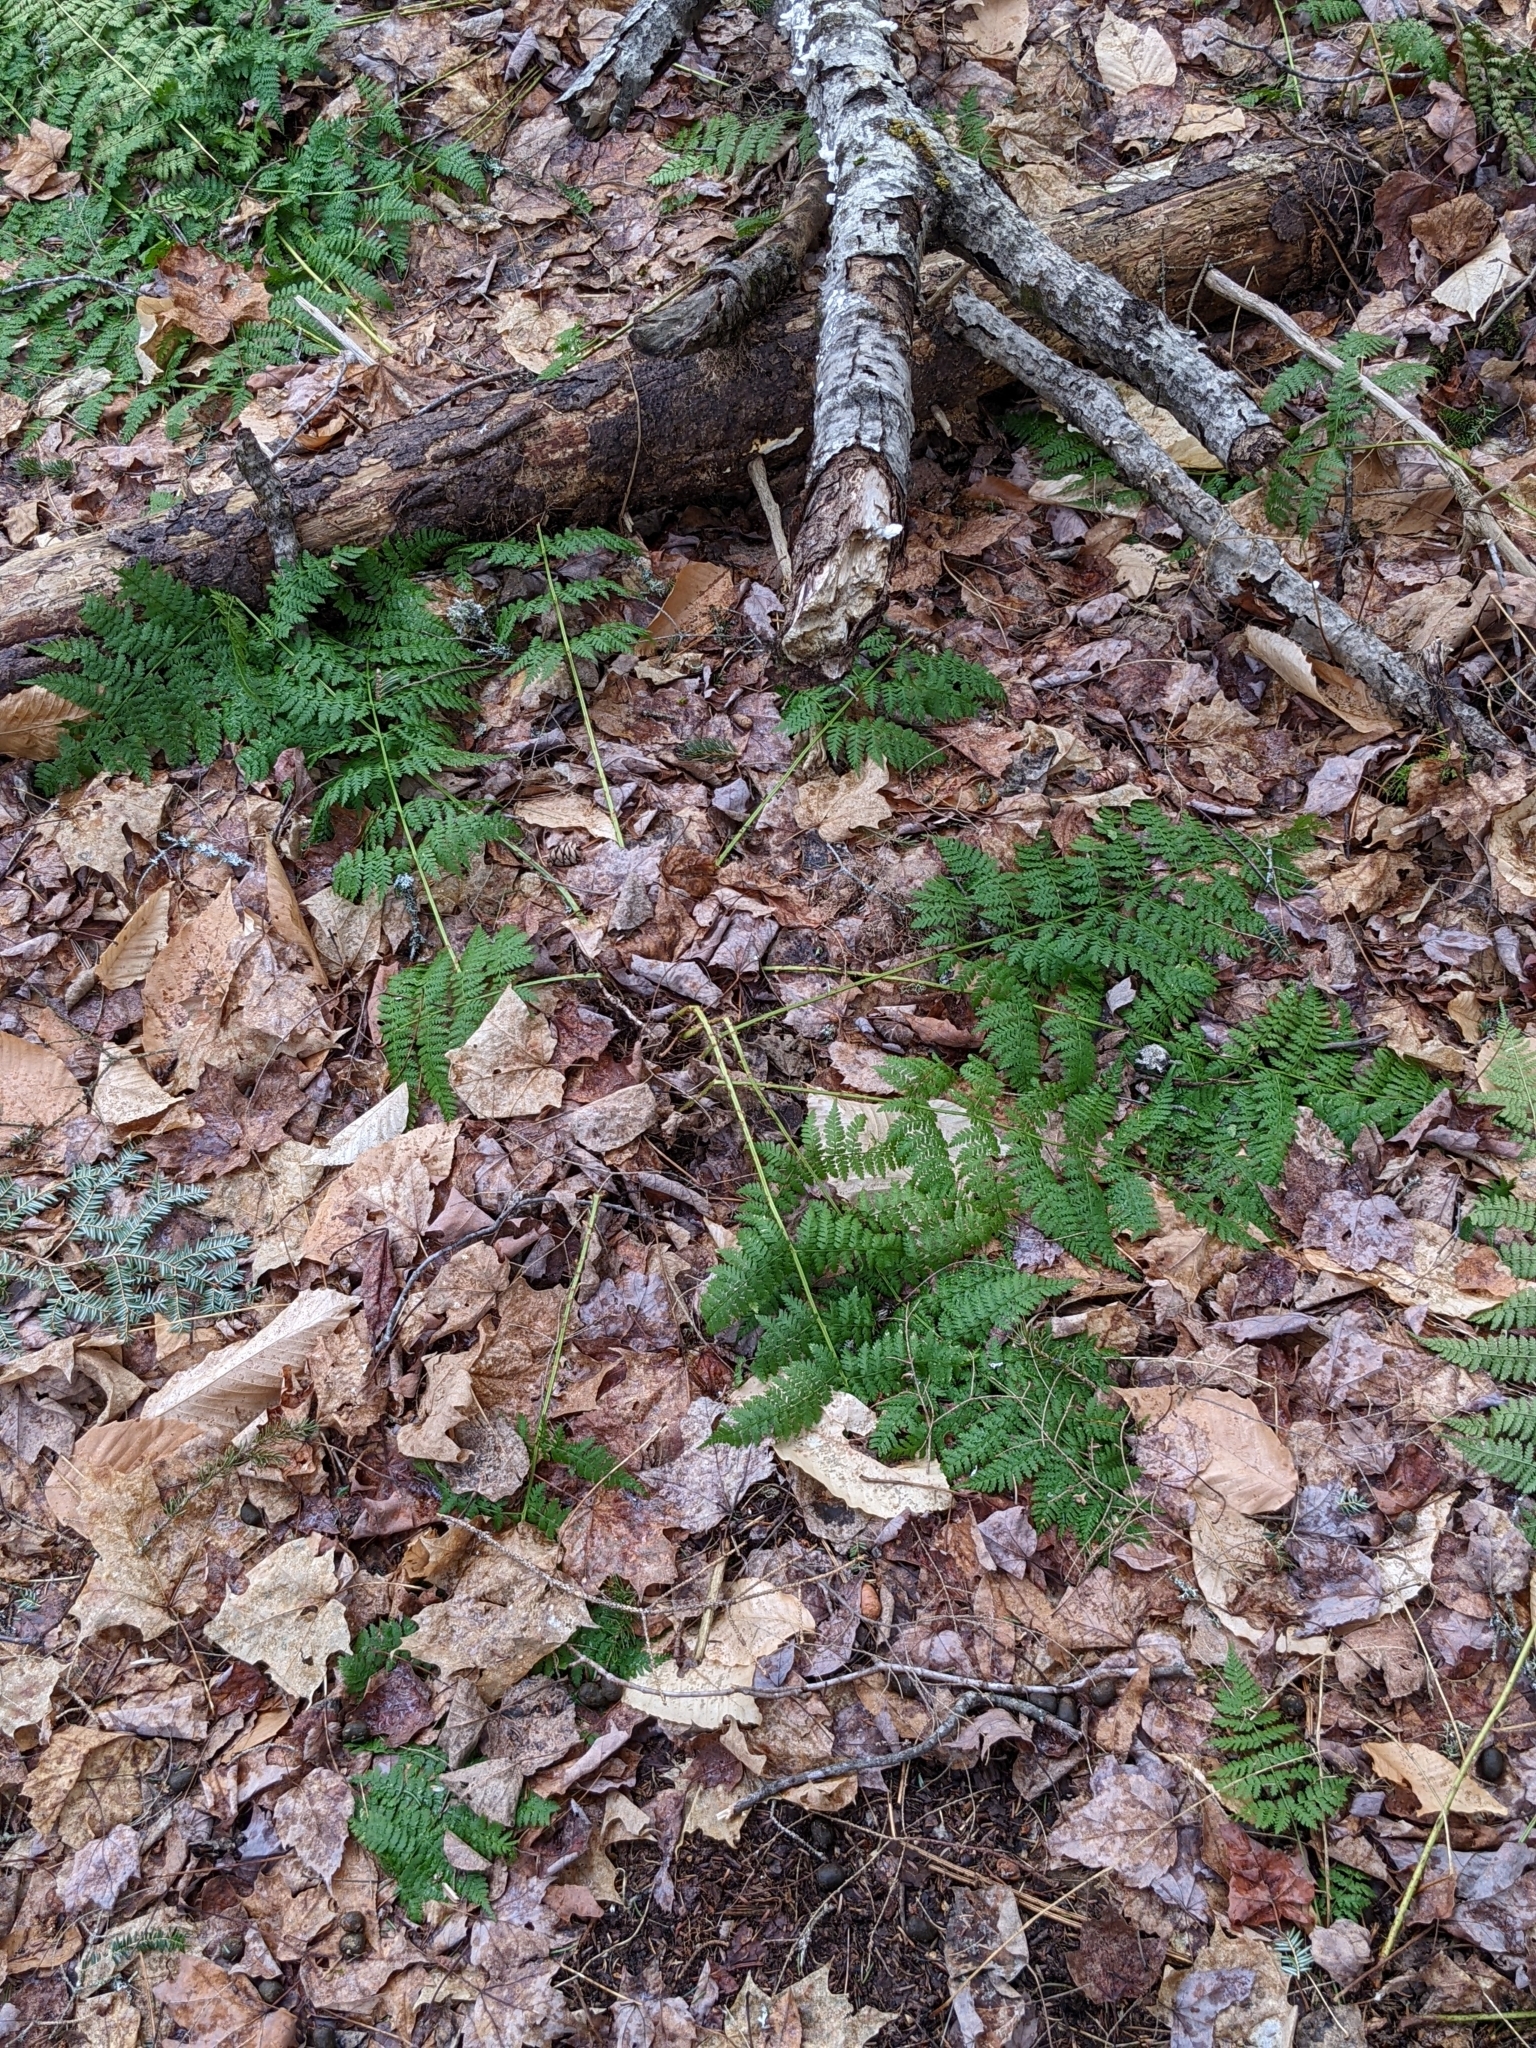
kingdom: Plantae
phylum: Tracheophyta
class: Polypodiopsida
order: Polypodiales
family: Dryopteridaceae
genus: Dryopteris
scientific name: Dryopteris intermedia
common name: Evergreen wood fern
